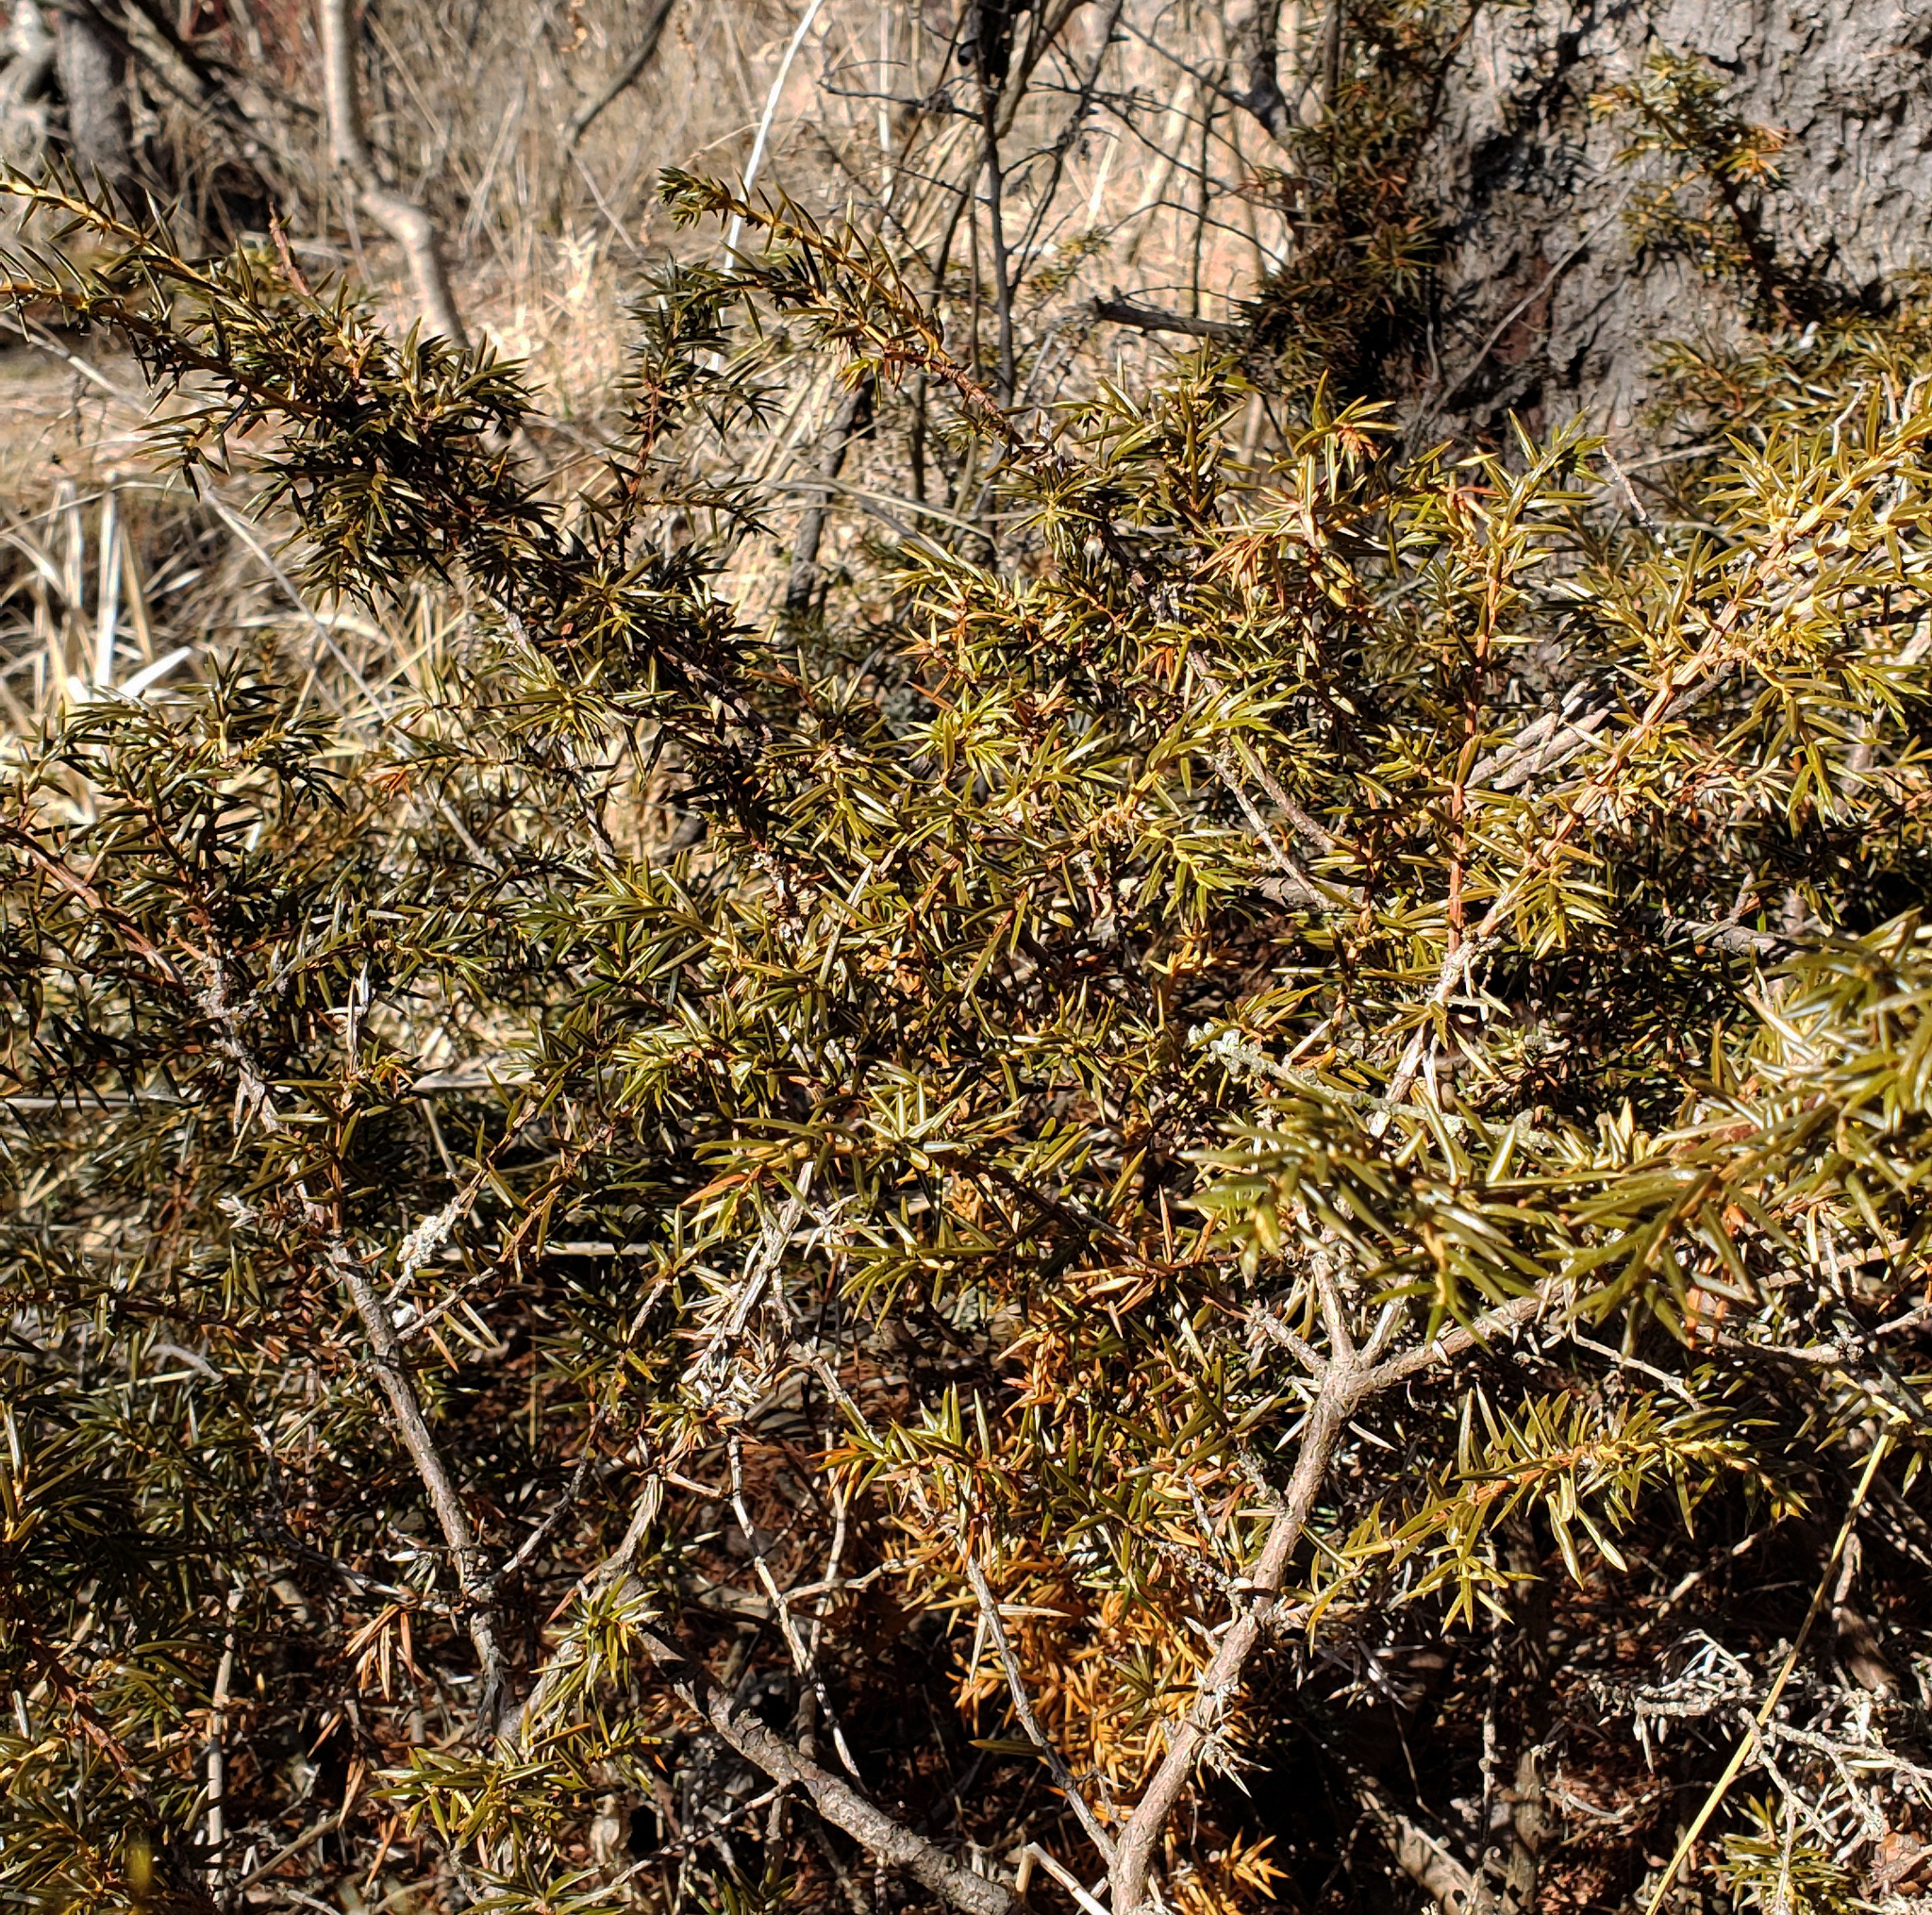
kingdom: Plantae
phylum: Tracheophyta
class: Pinopsida
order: Pinales
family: Cupressaceae
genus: Juniperus
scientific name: Juniperus communis
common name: Common juniper
